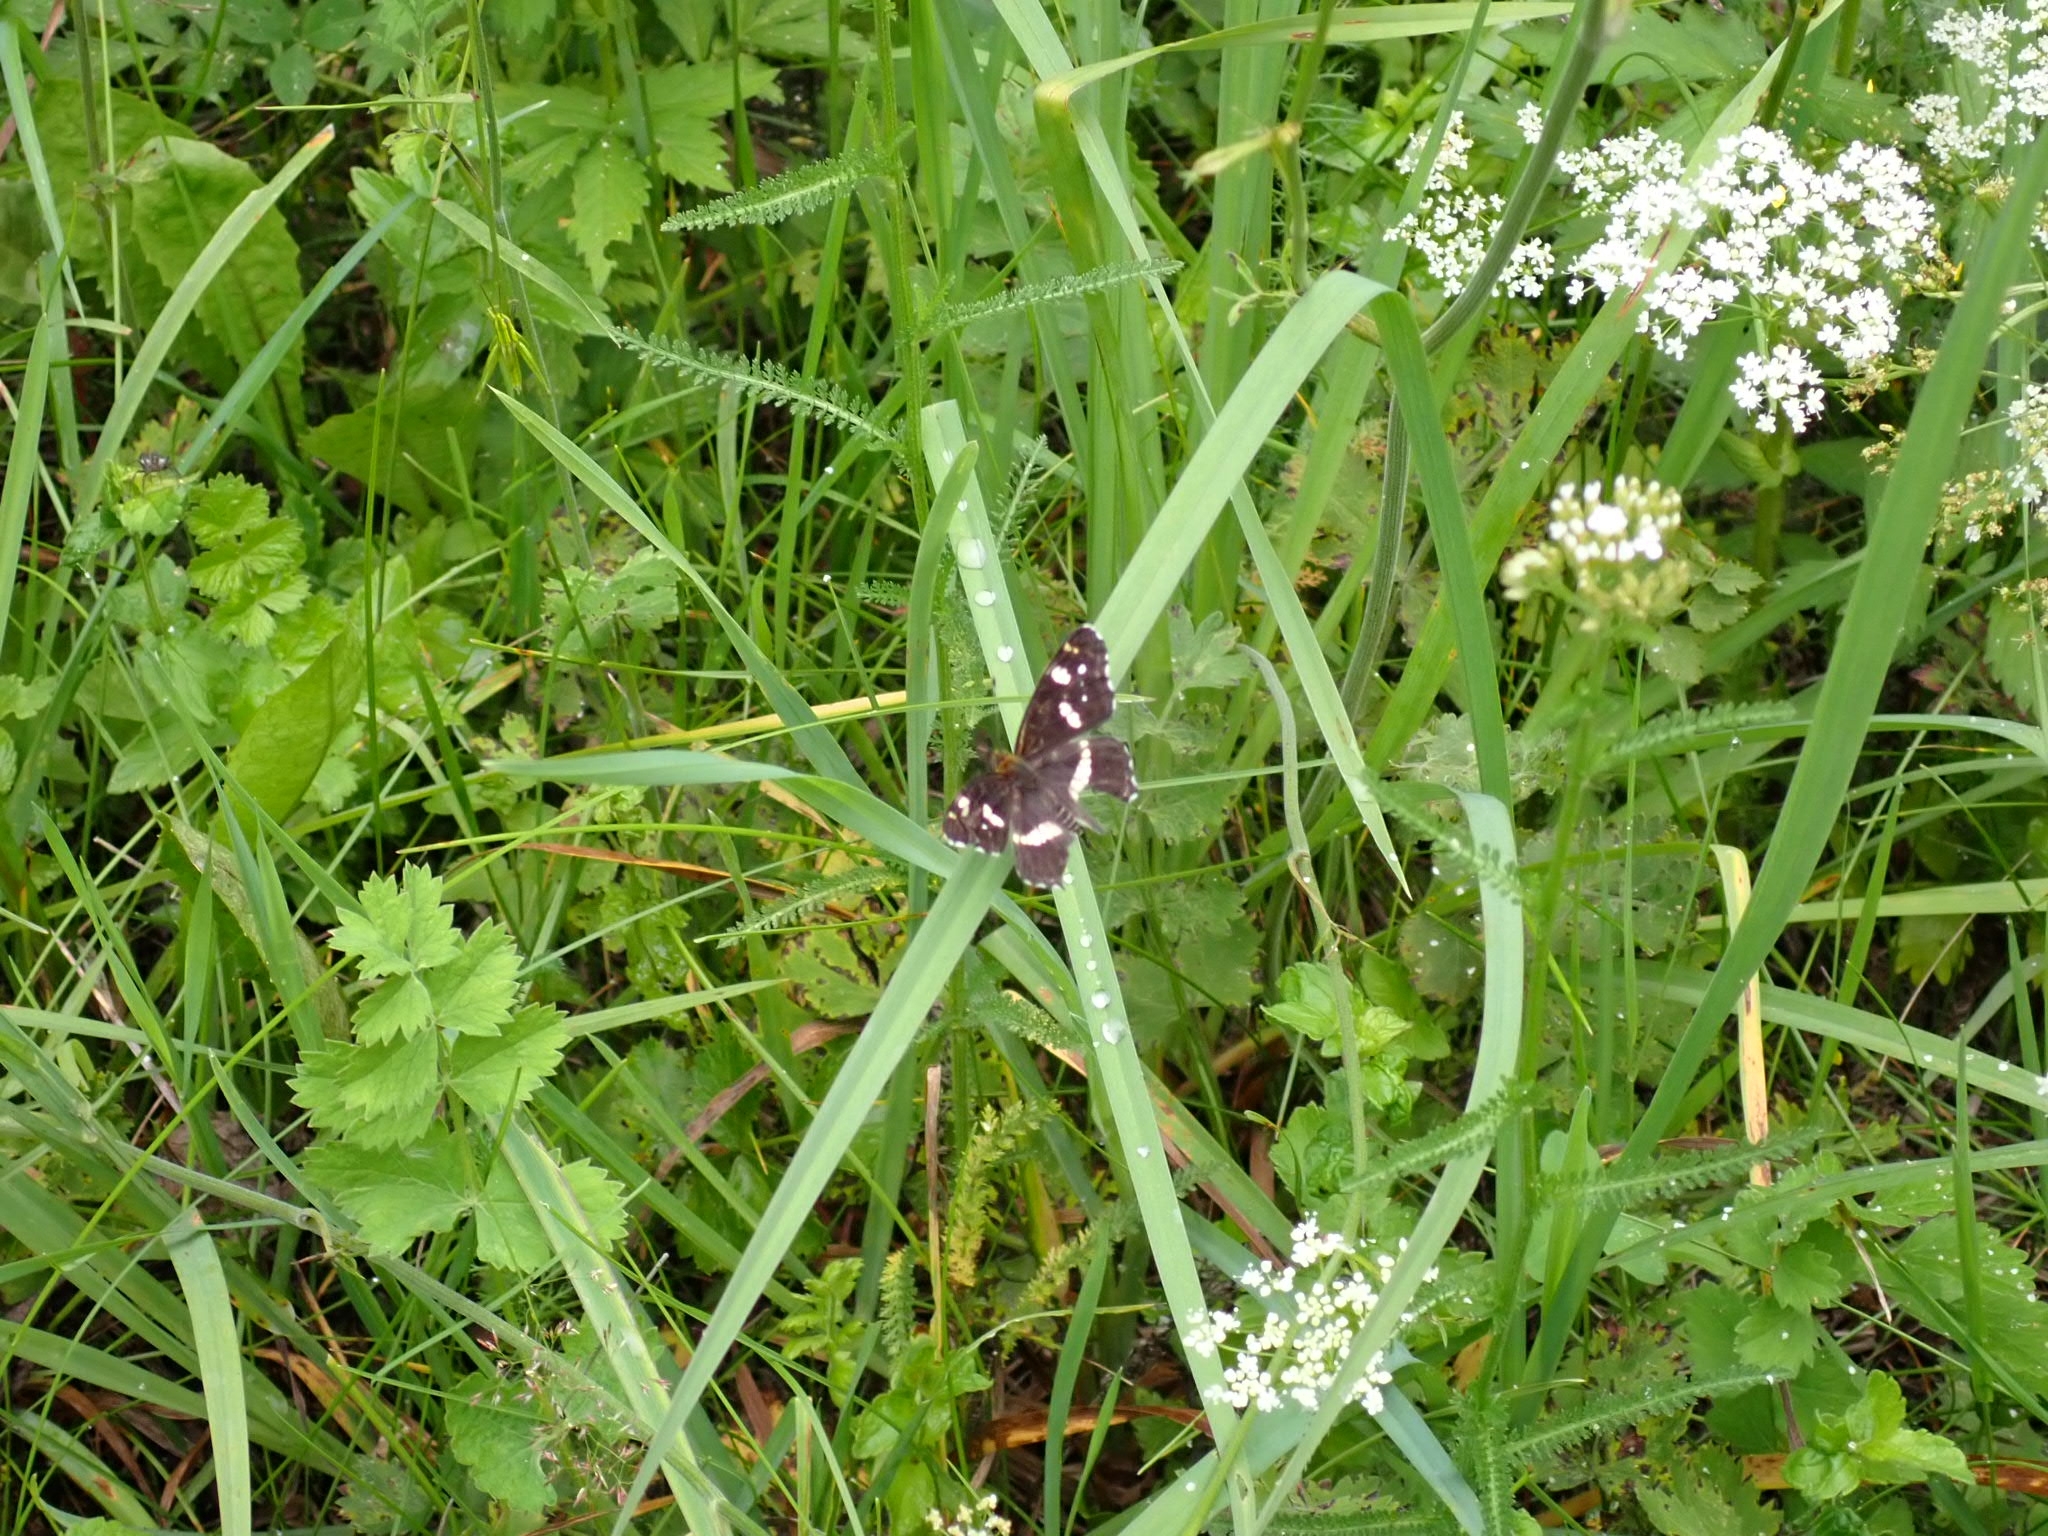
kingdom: Animalia
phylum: Arthropoda
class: Insecta
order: Lepidoptera
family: Nymphalidae
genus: Araschnia
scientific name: Araschnia levana
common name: Map butterfly
